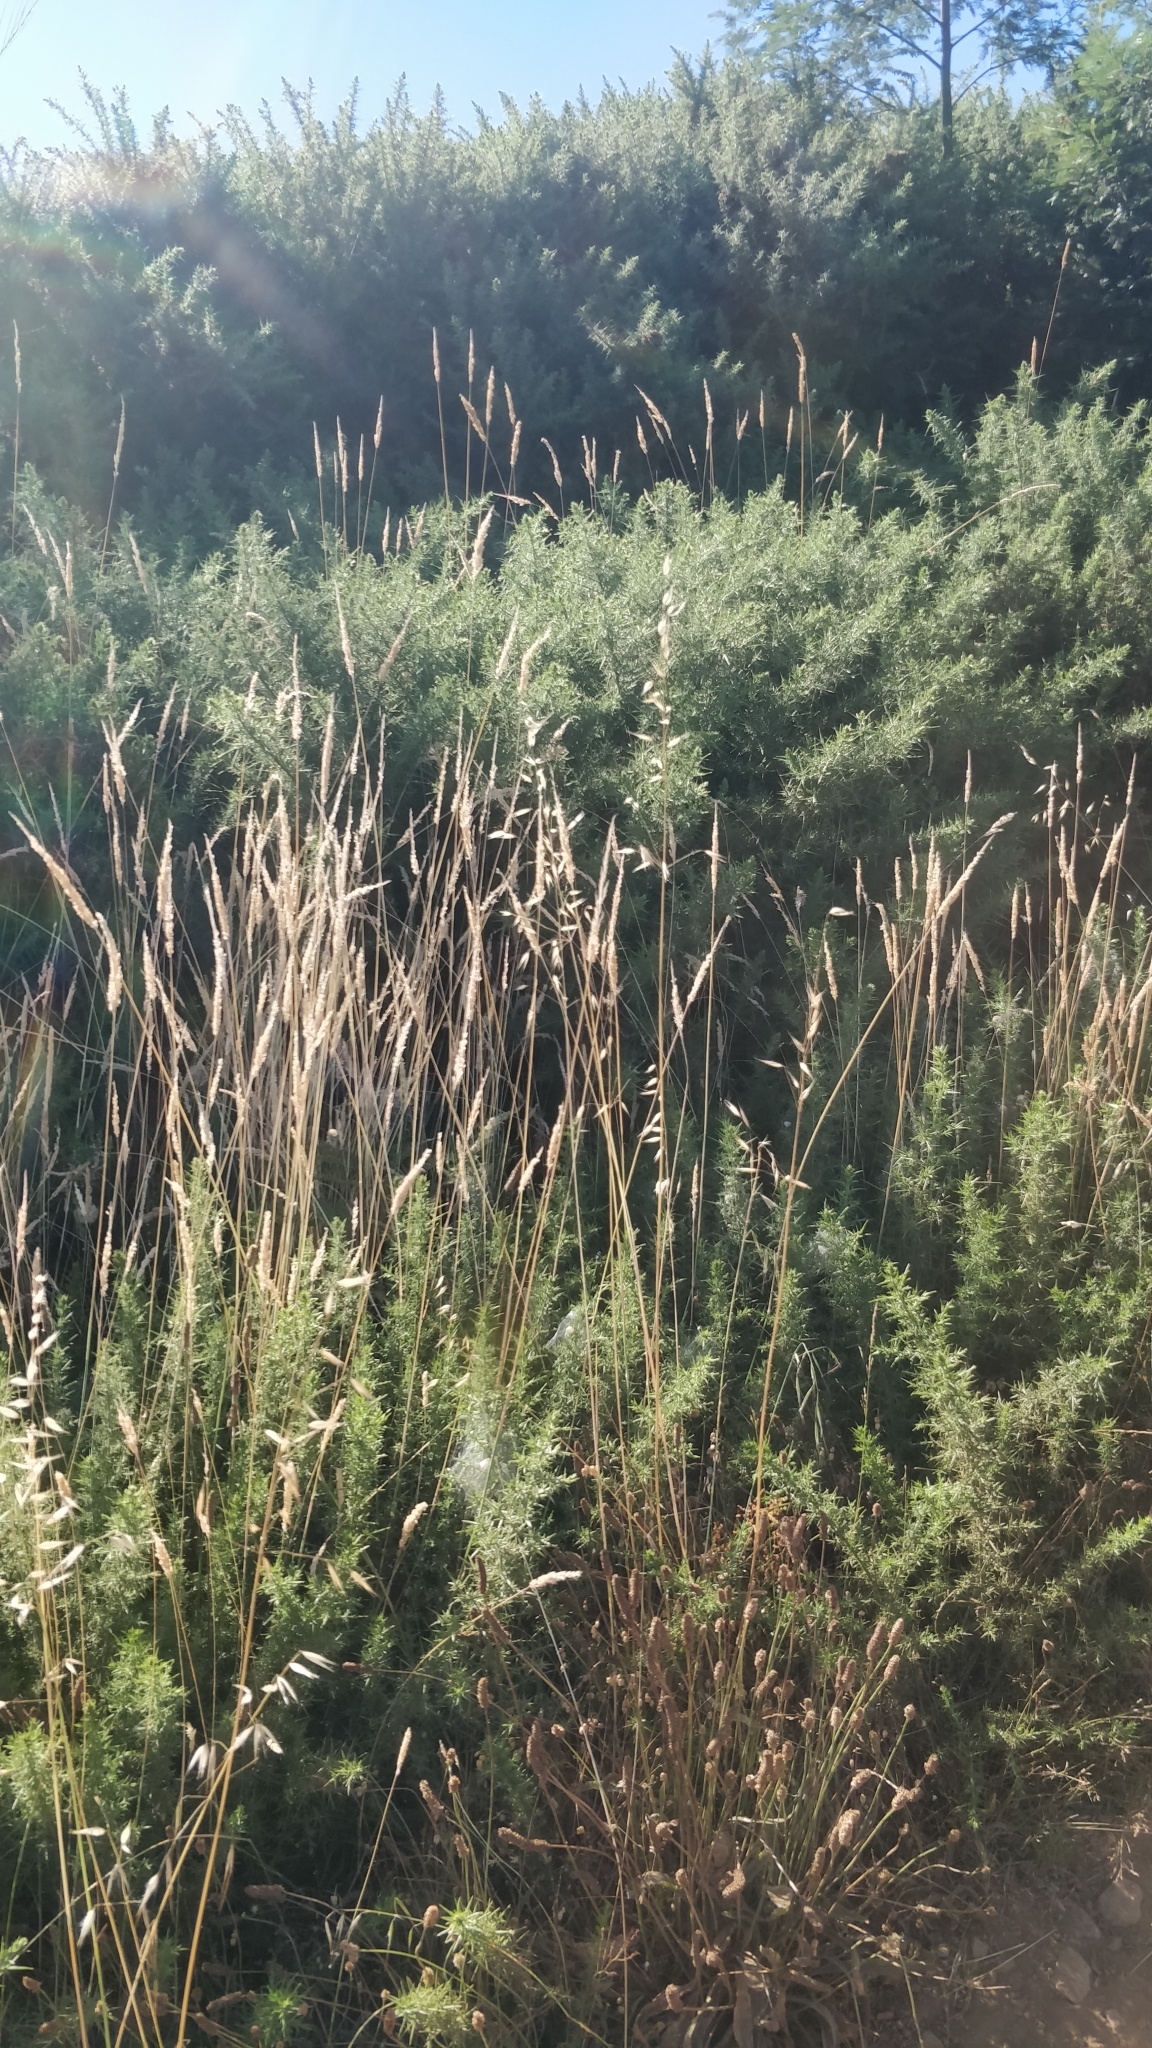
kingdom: Plantae
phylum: Tracheophyta
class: Magnoliopsida
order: Fabales
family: Fabaceae
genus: Ulex
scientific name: Ulex europaeus
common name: Common gorse
